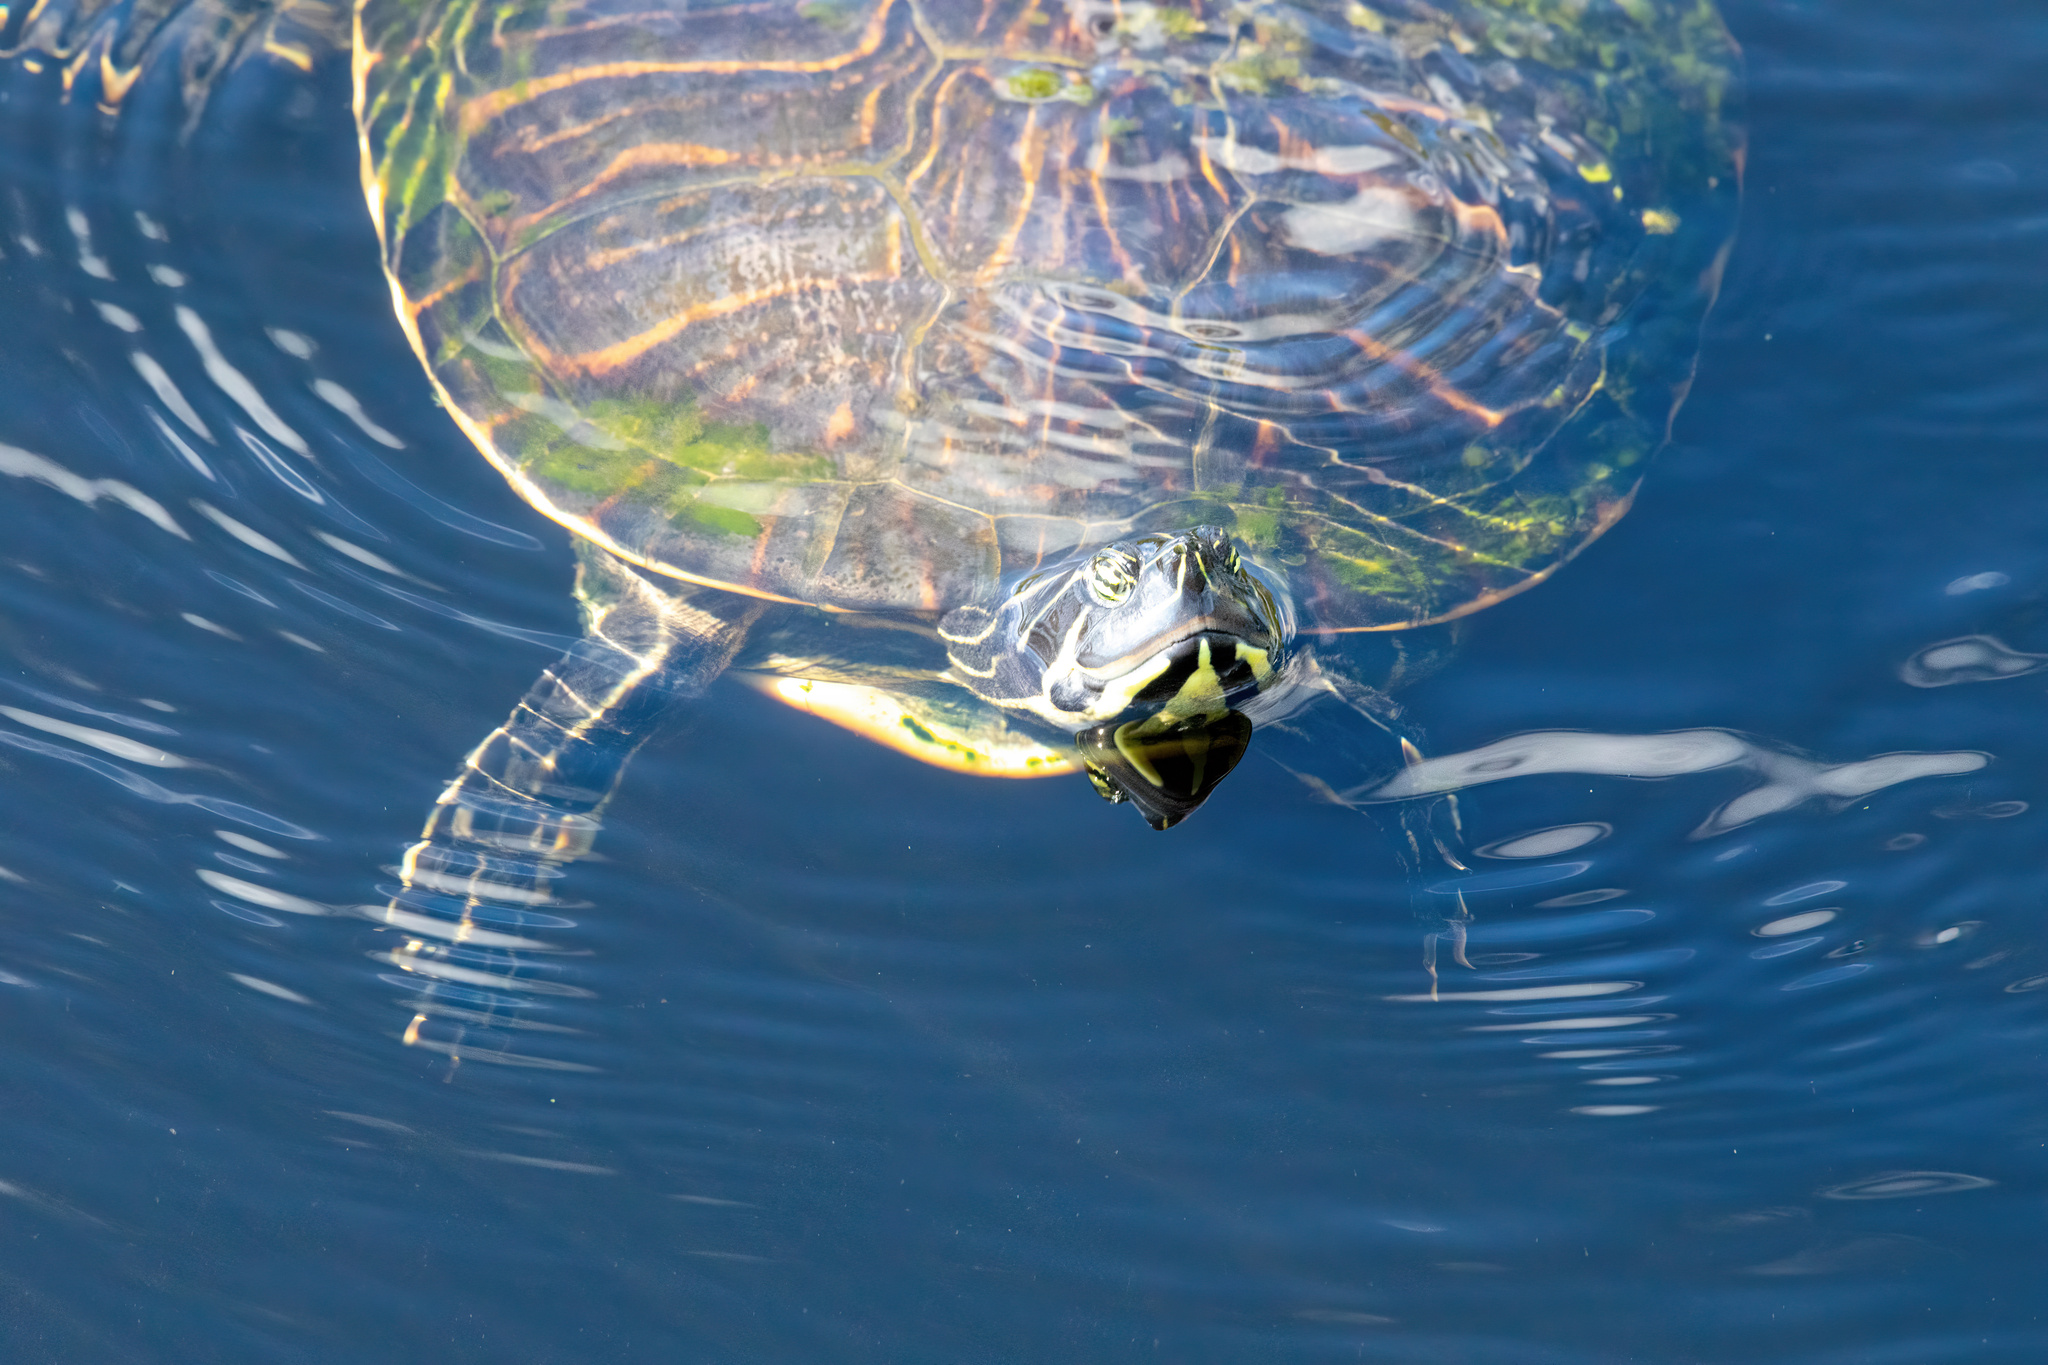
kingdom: Animalia
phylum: Chordata
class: Testudines
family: Emydidae
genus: Pseudemys
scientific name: Pseudemys peninsularis
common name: Peninsula cooter
